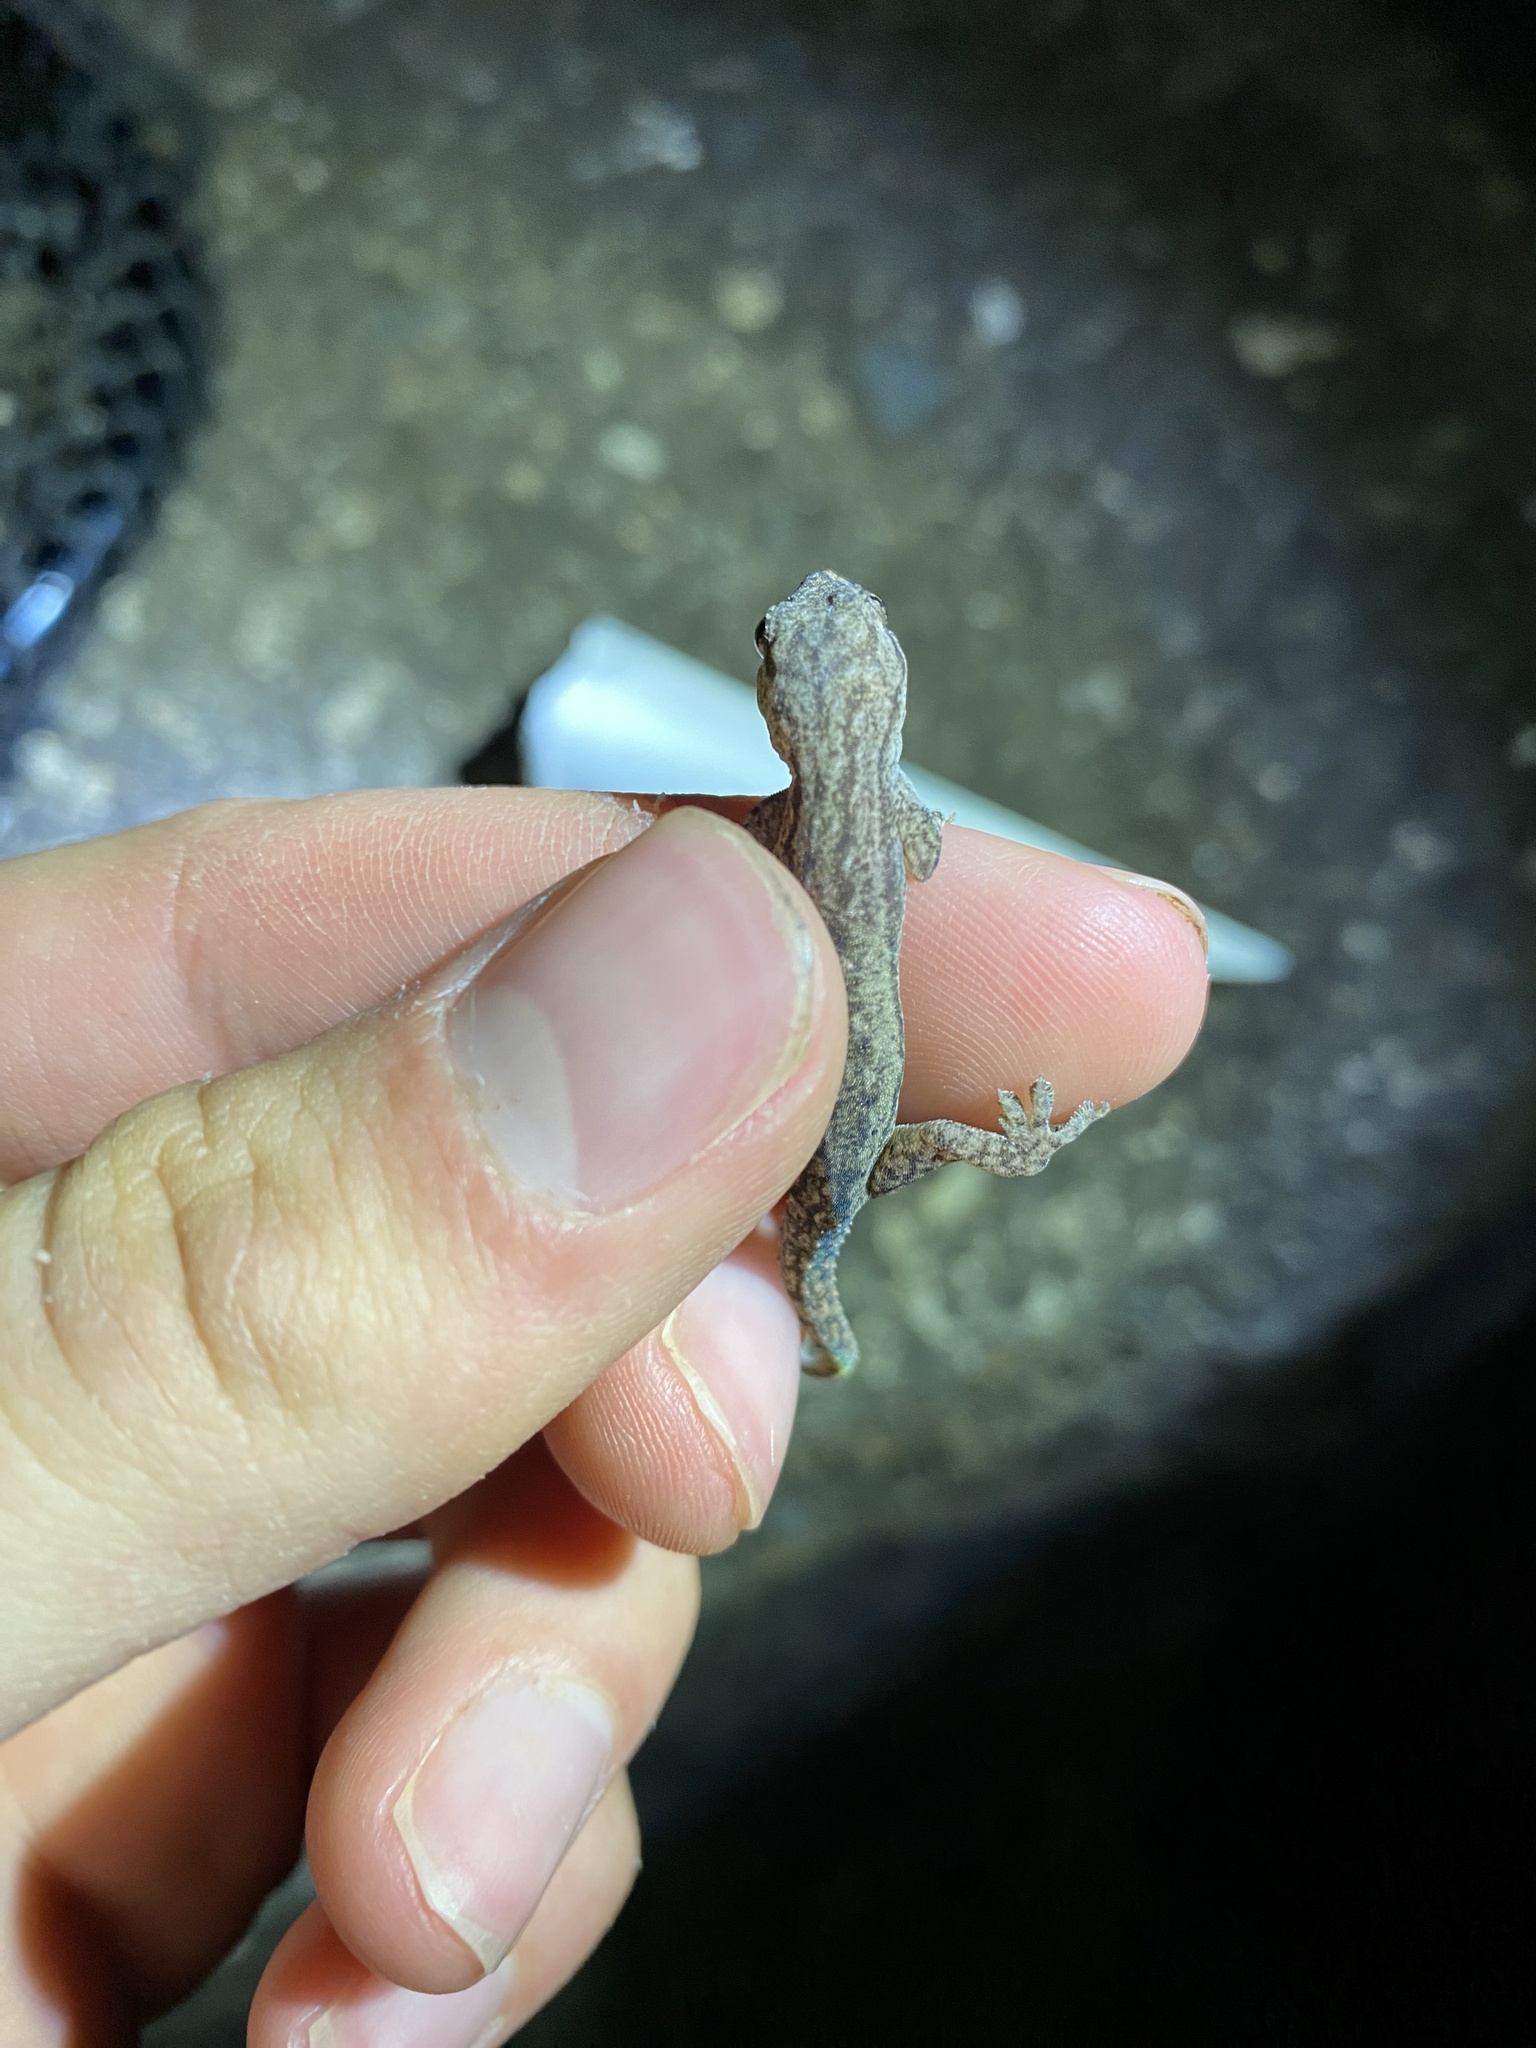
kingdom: Animalia
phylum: Chordata
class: Squamata
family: Gekkonidae
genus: Hemidactylus
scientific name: Hemidactylus frenatus
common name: Common house gecko
